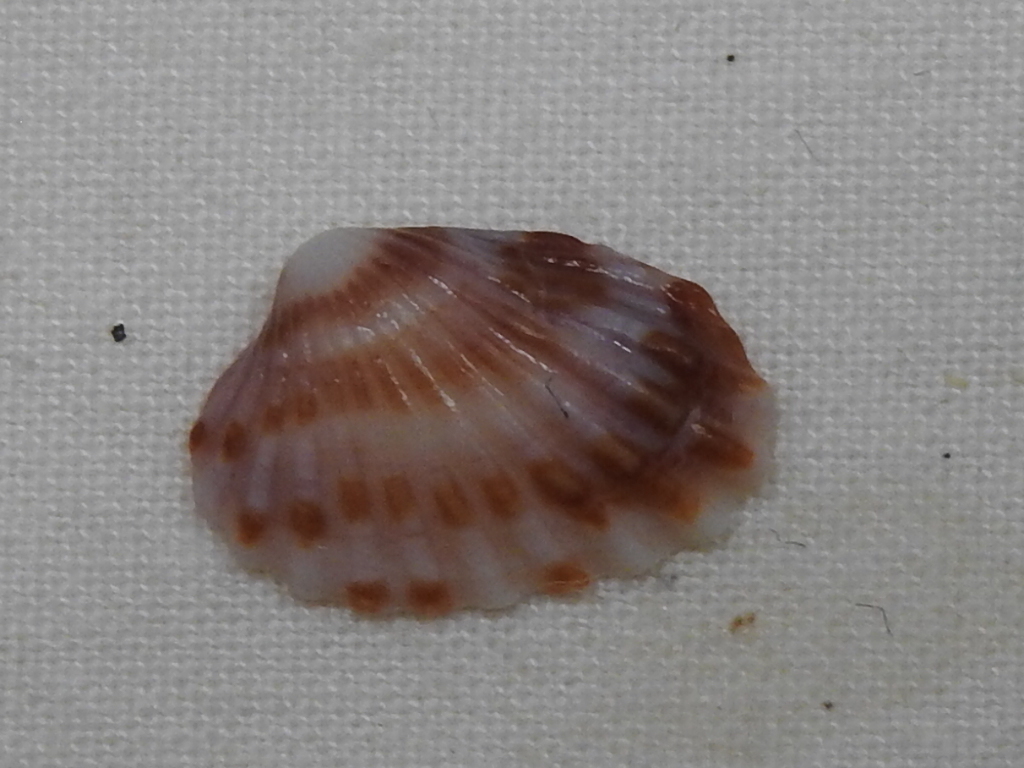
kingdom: Animalia
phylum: Mollusca
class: Bivalvia
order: Carditida
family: Carditidae
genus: Cardites
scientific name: Cardites floridanus
